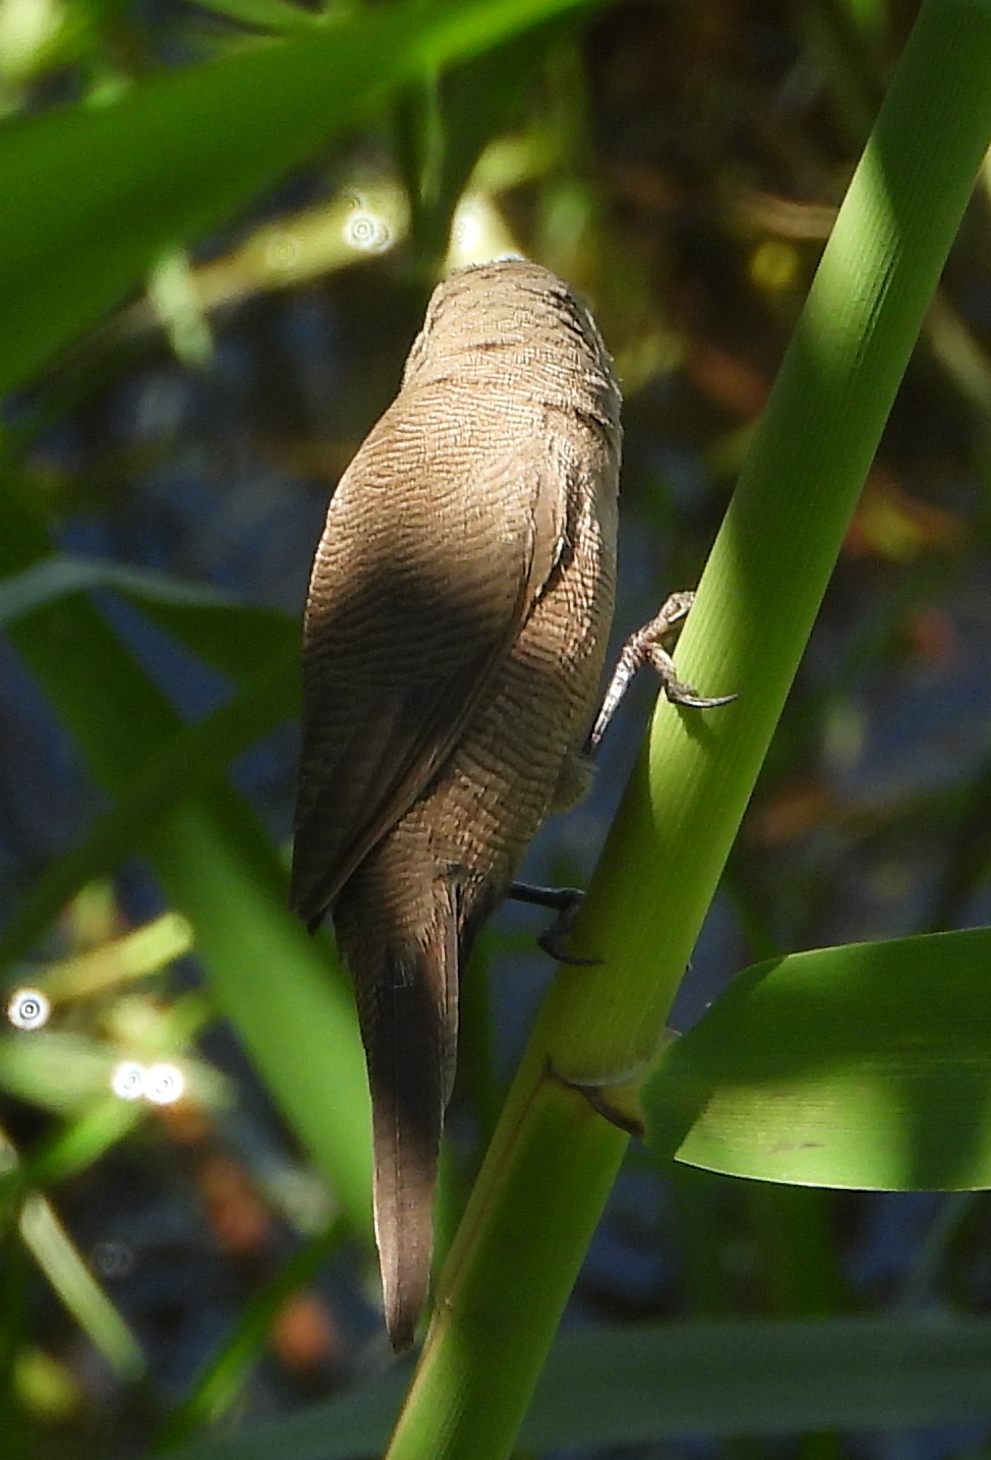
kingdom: Animalia
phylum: Chordata
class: Aves
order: Passeriformes
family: Estrildidae
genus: Estrilda
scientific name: Estrilda astrild
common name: Common waxbill
